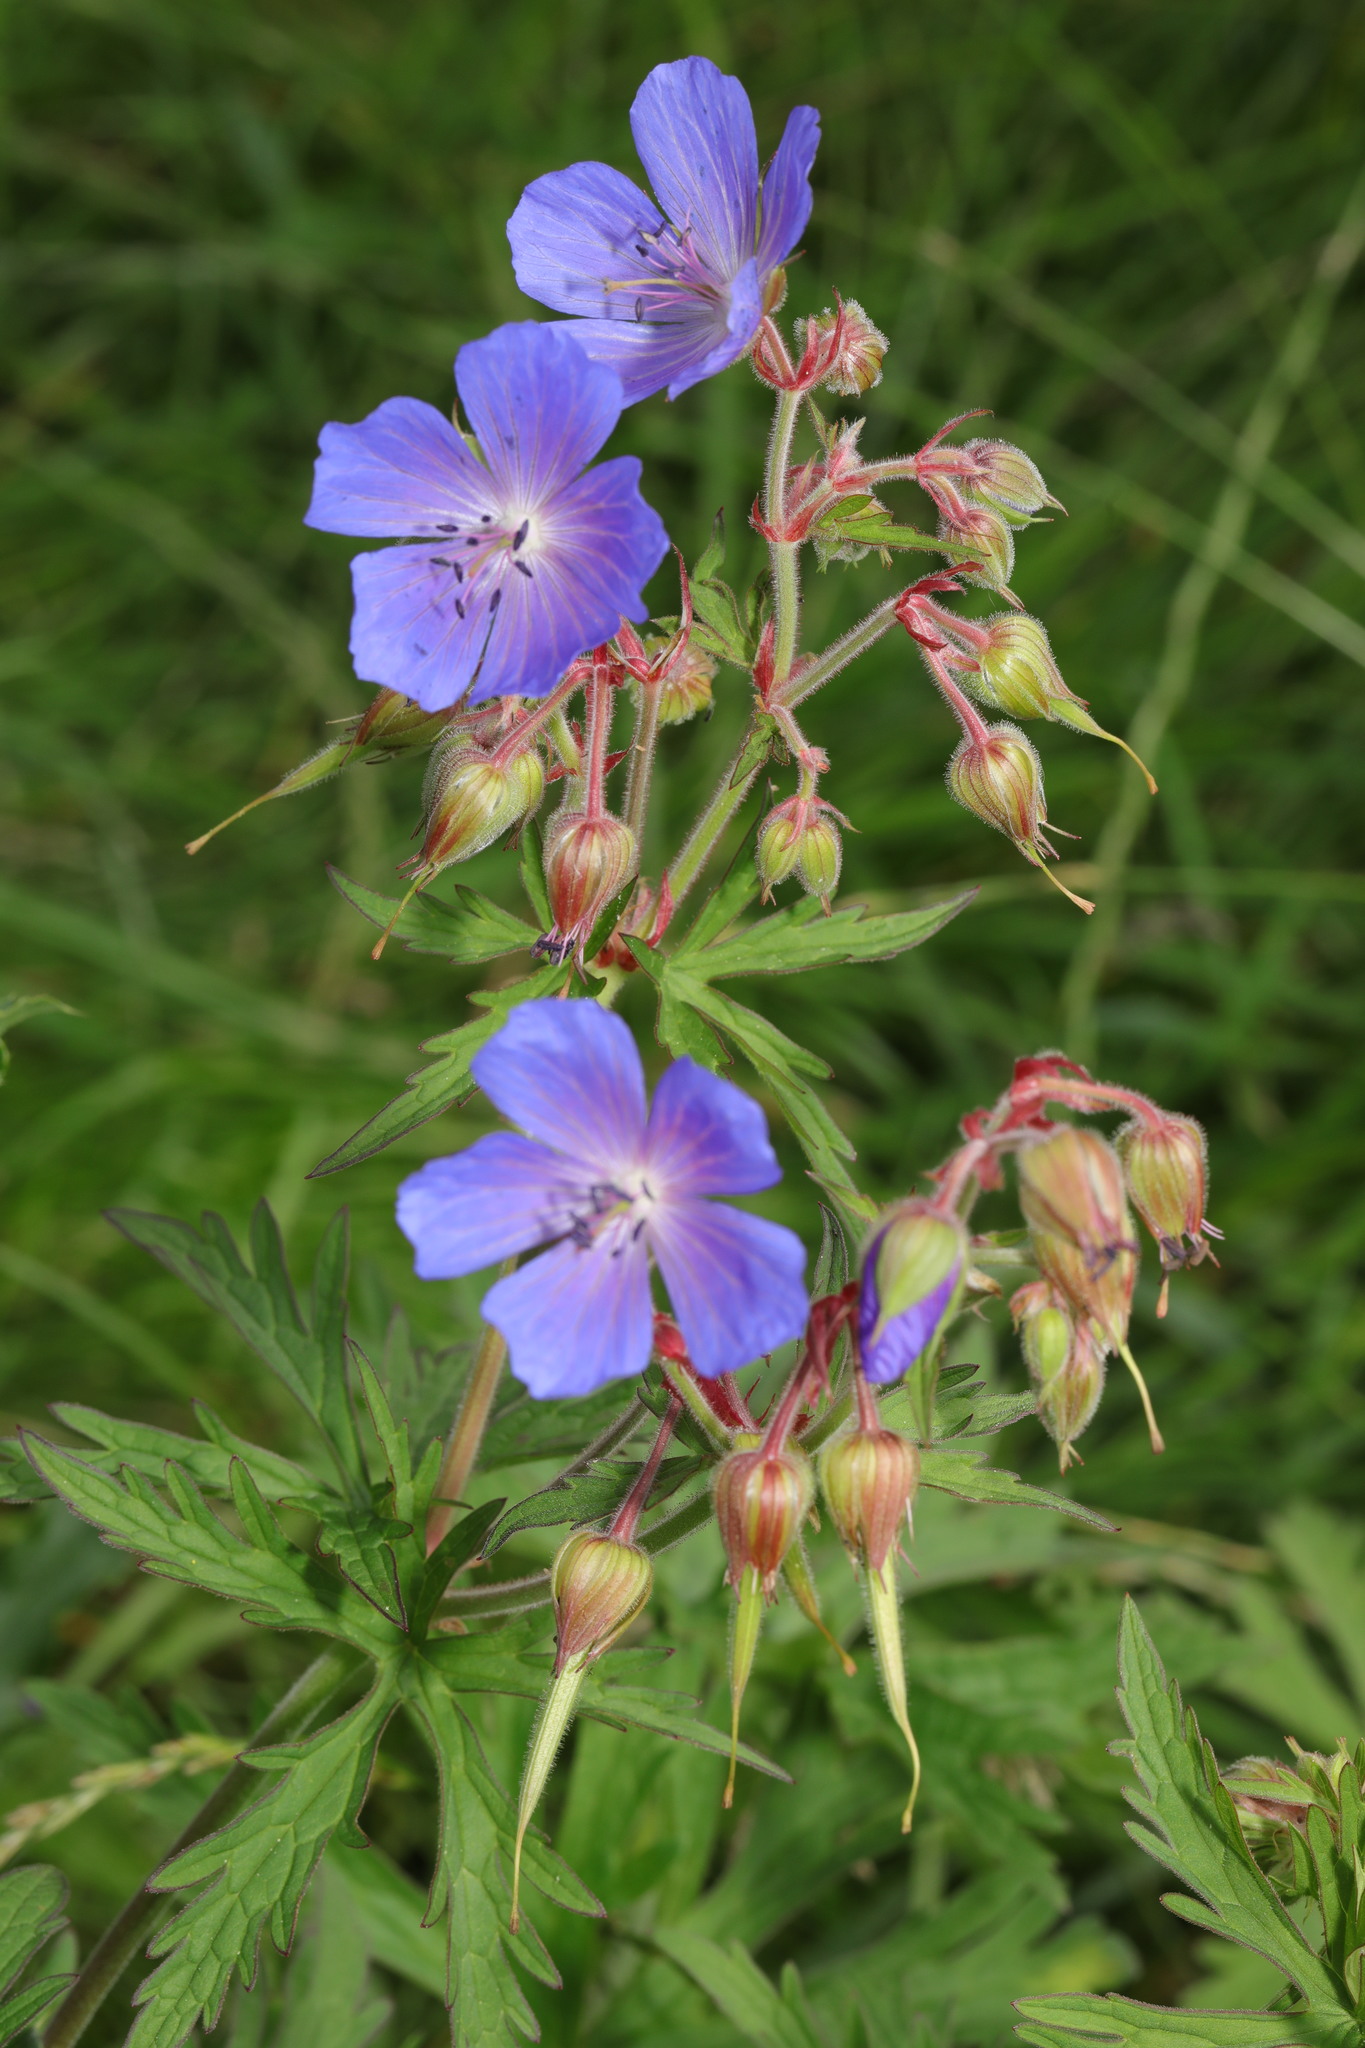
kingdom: Plantae
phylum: Tracheophyta
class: Magnoliopsida
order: Geraniales
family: Geraniaceae
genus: Geranium
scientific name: Geranium pratense
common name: Meadow crane's-bill
